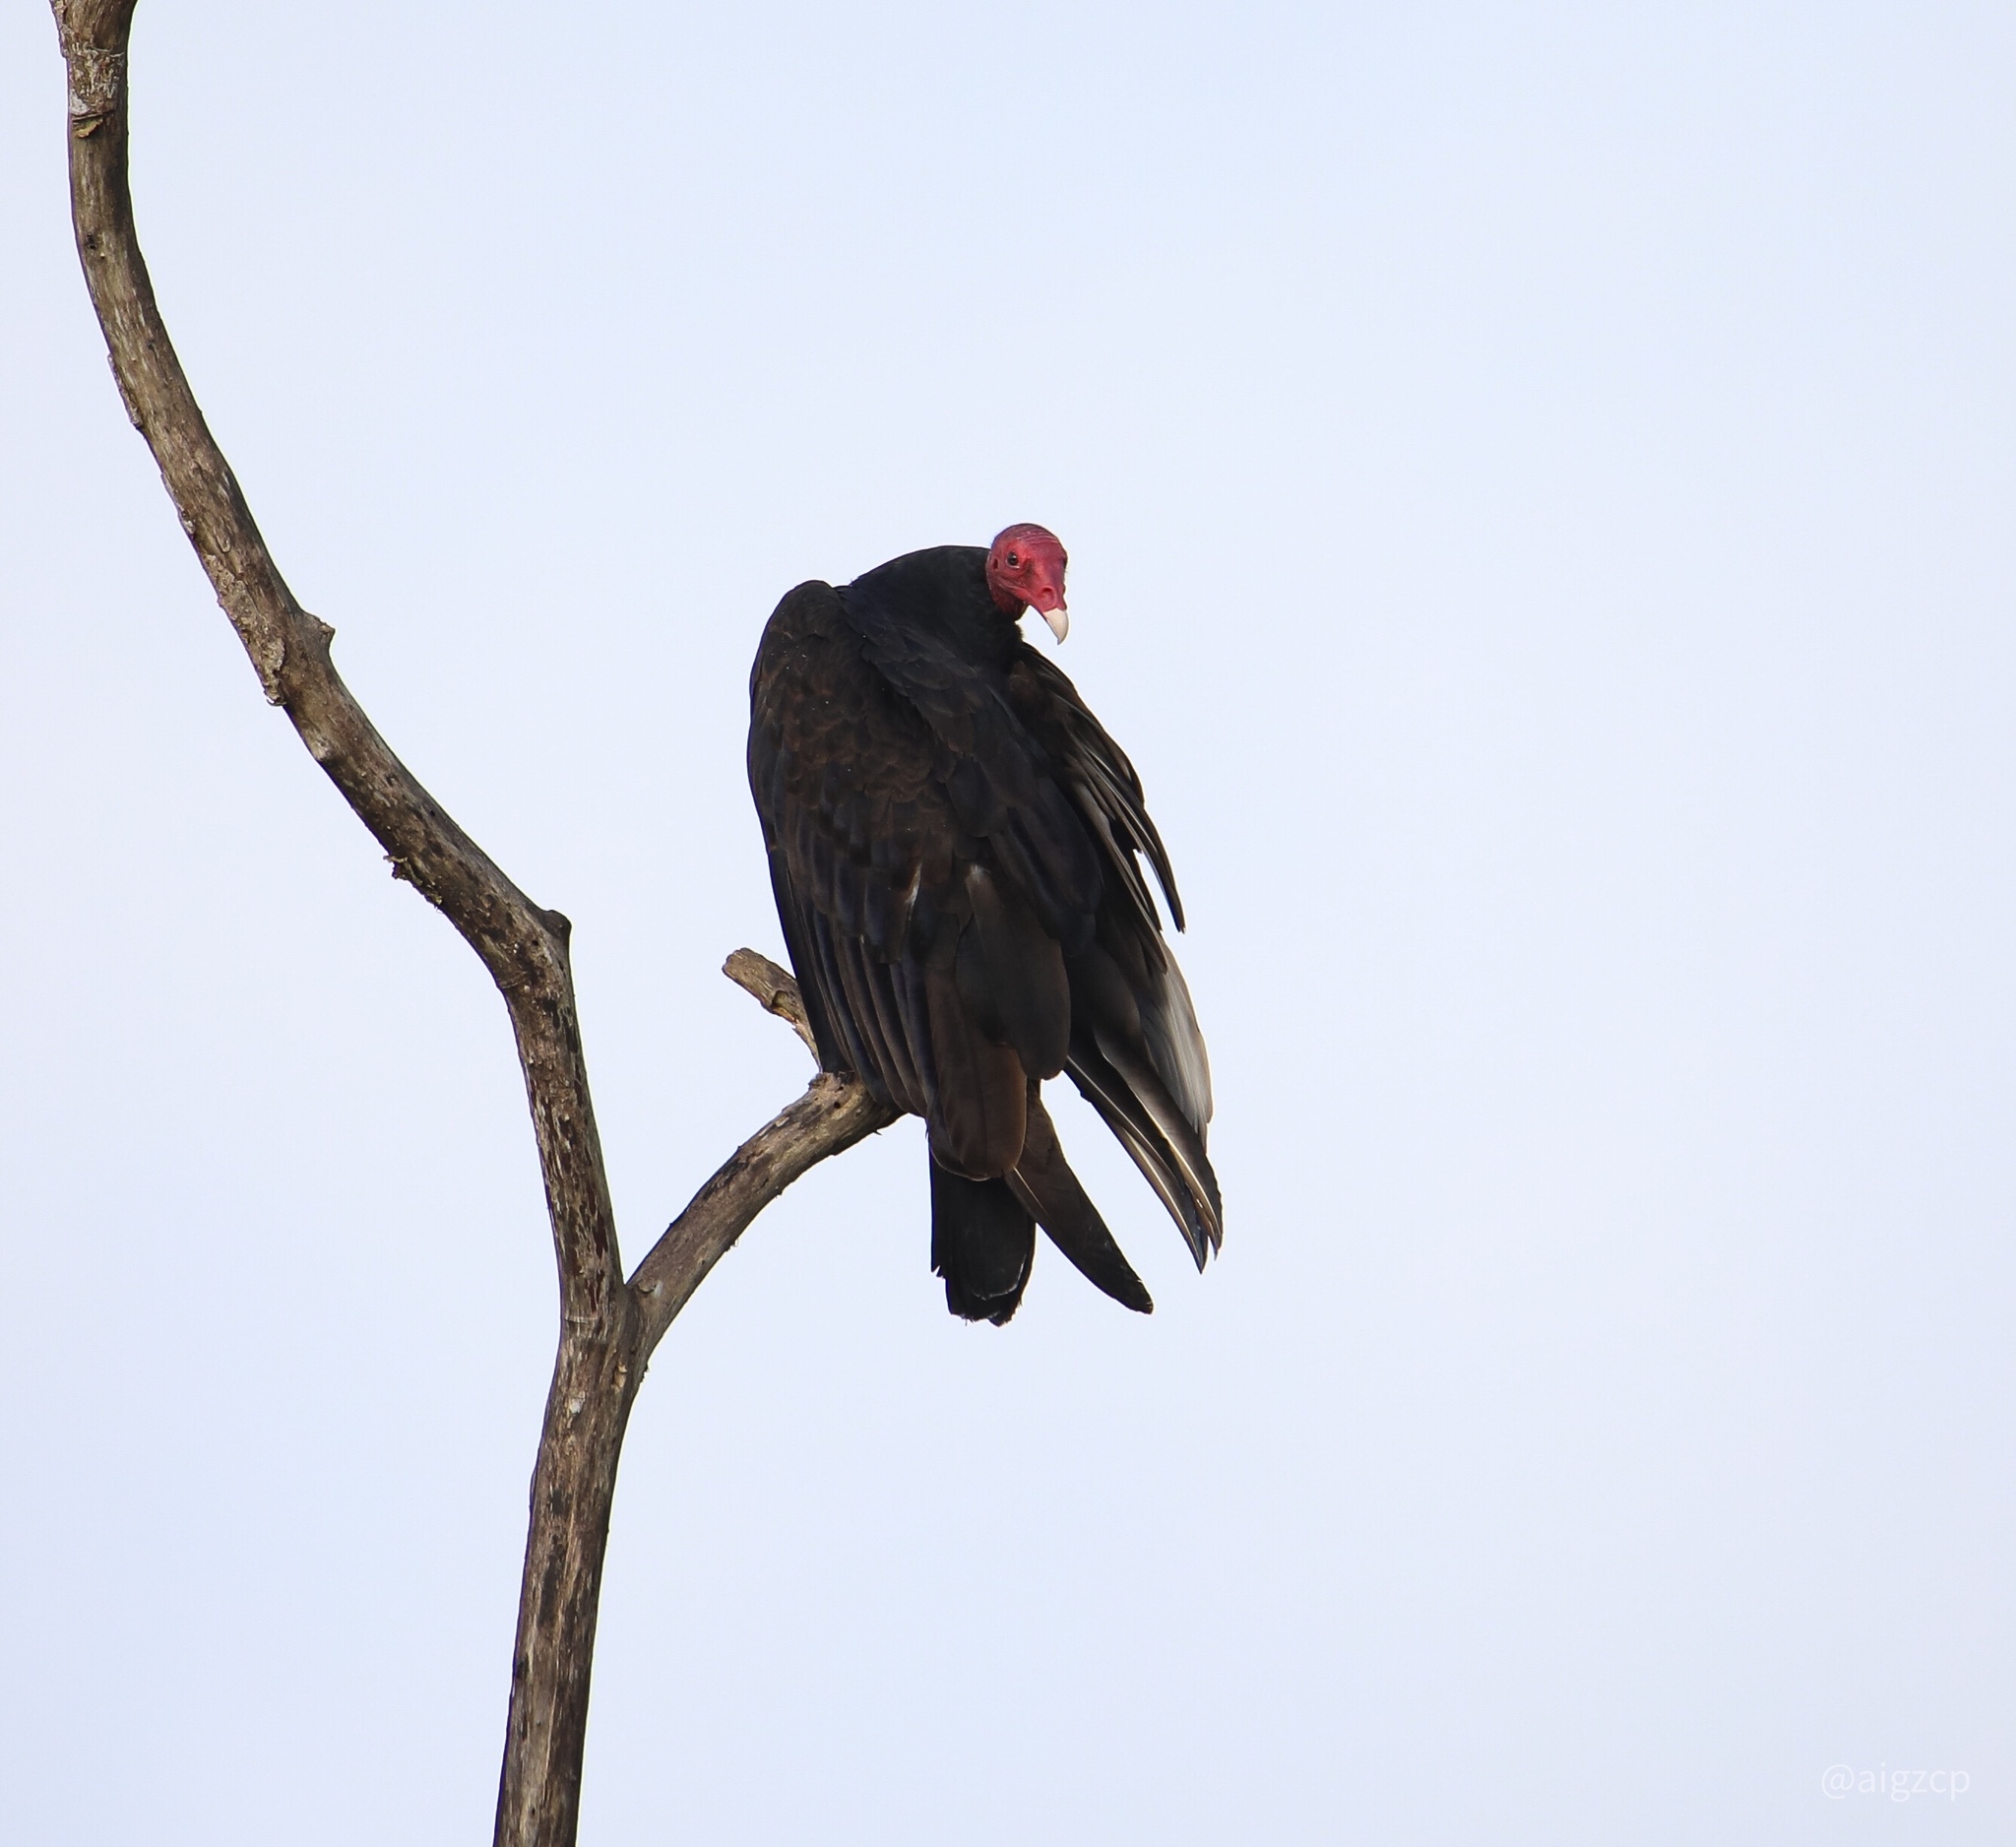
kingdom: Animalia
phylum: Chordata
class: Aves
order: Accipitriformes
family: Cathartidae
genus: Cathartes
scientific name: Cathartes aura
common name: Turkey vulture
